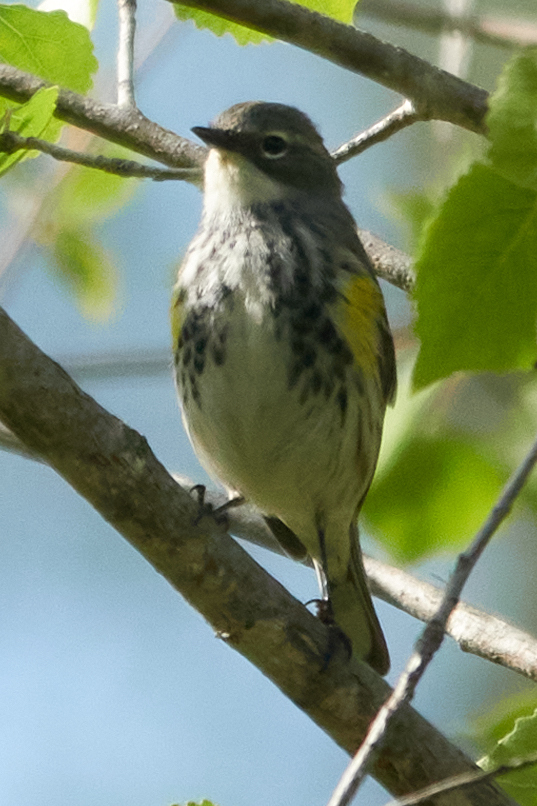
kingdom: Animalia
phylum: Chordata
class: Aves
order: Passeriformes
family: Parulidae
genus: Setophaga
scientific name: Setophaga coronata
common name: Myrtle warbler
